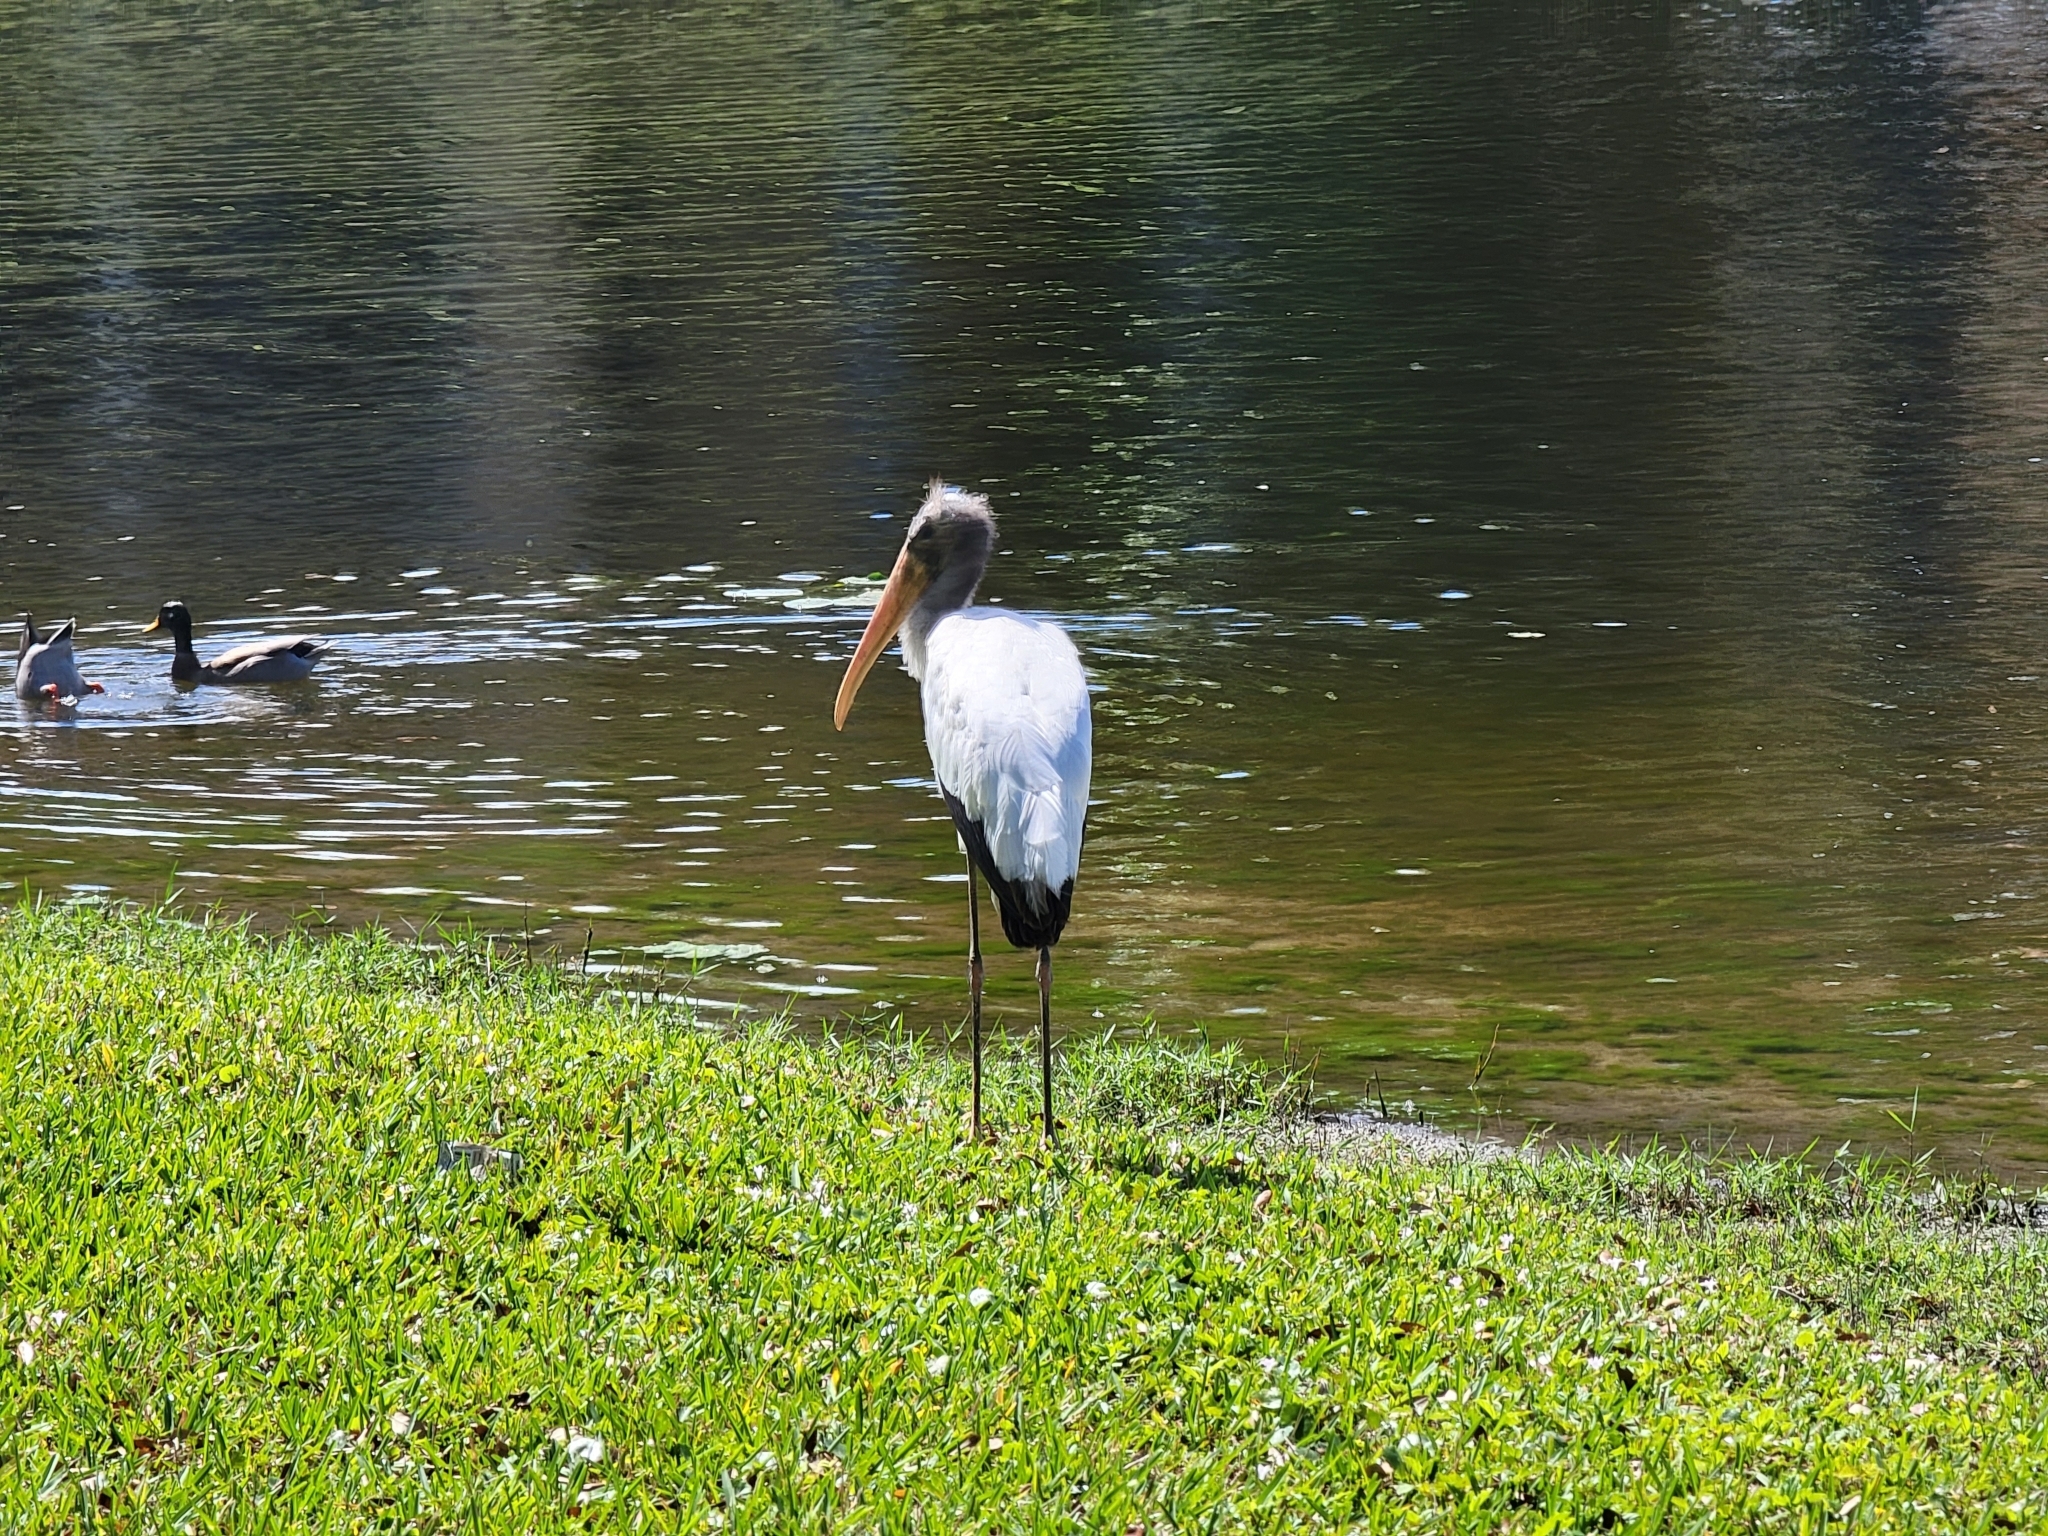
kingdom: Animalia
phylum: Chordata
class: Aves
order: Ciconiiformes
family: Ciconiidae
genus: Mycteria
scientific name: Mycteria americana
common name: Wood stork
